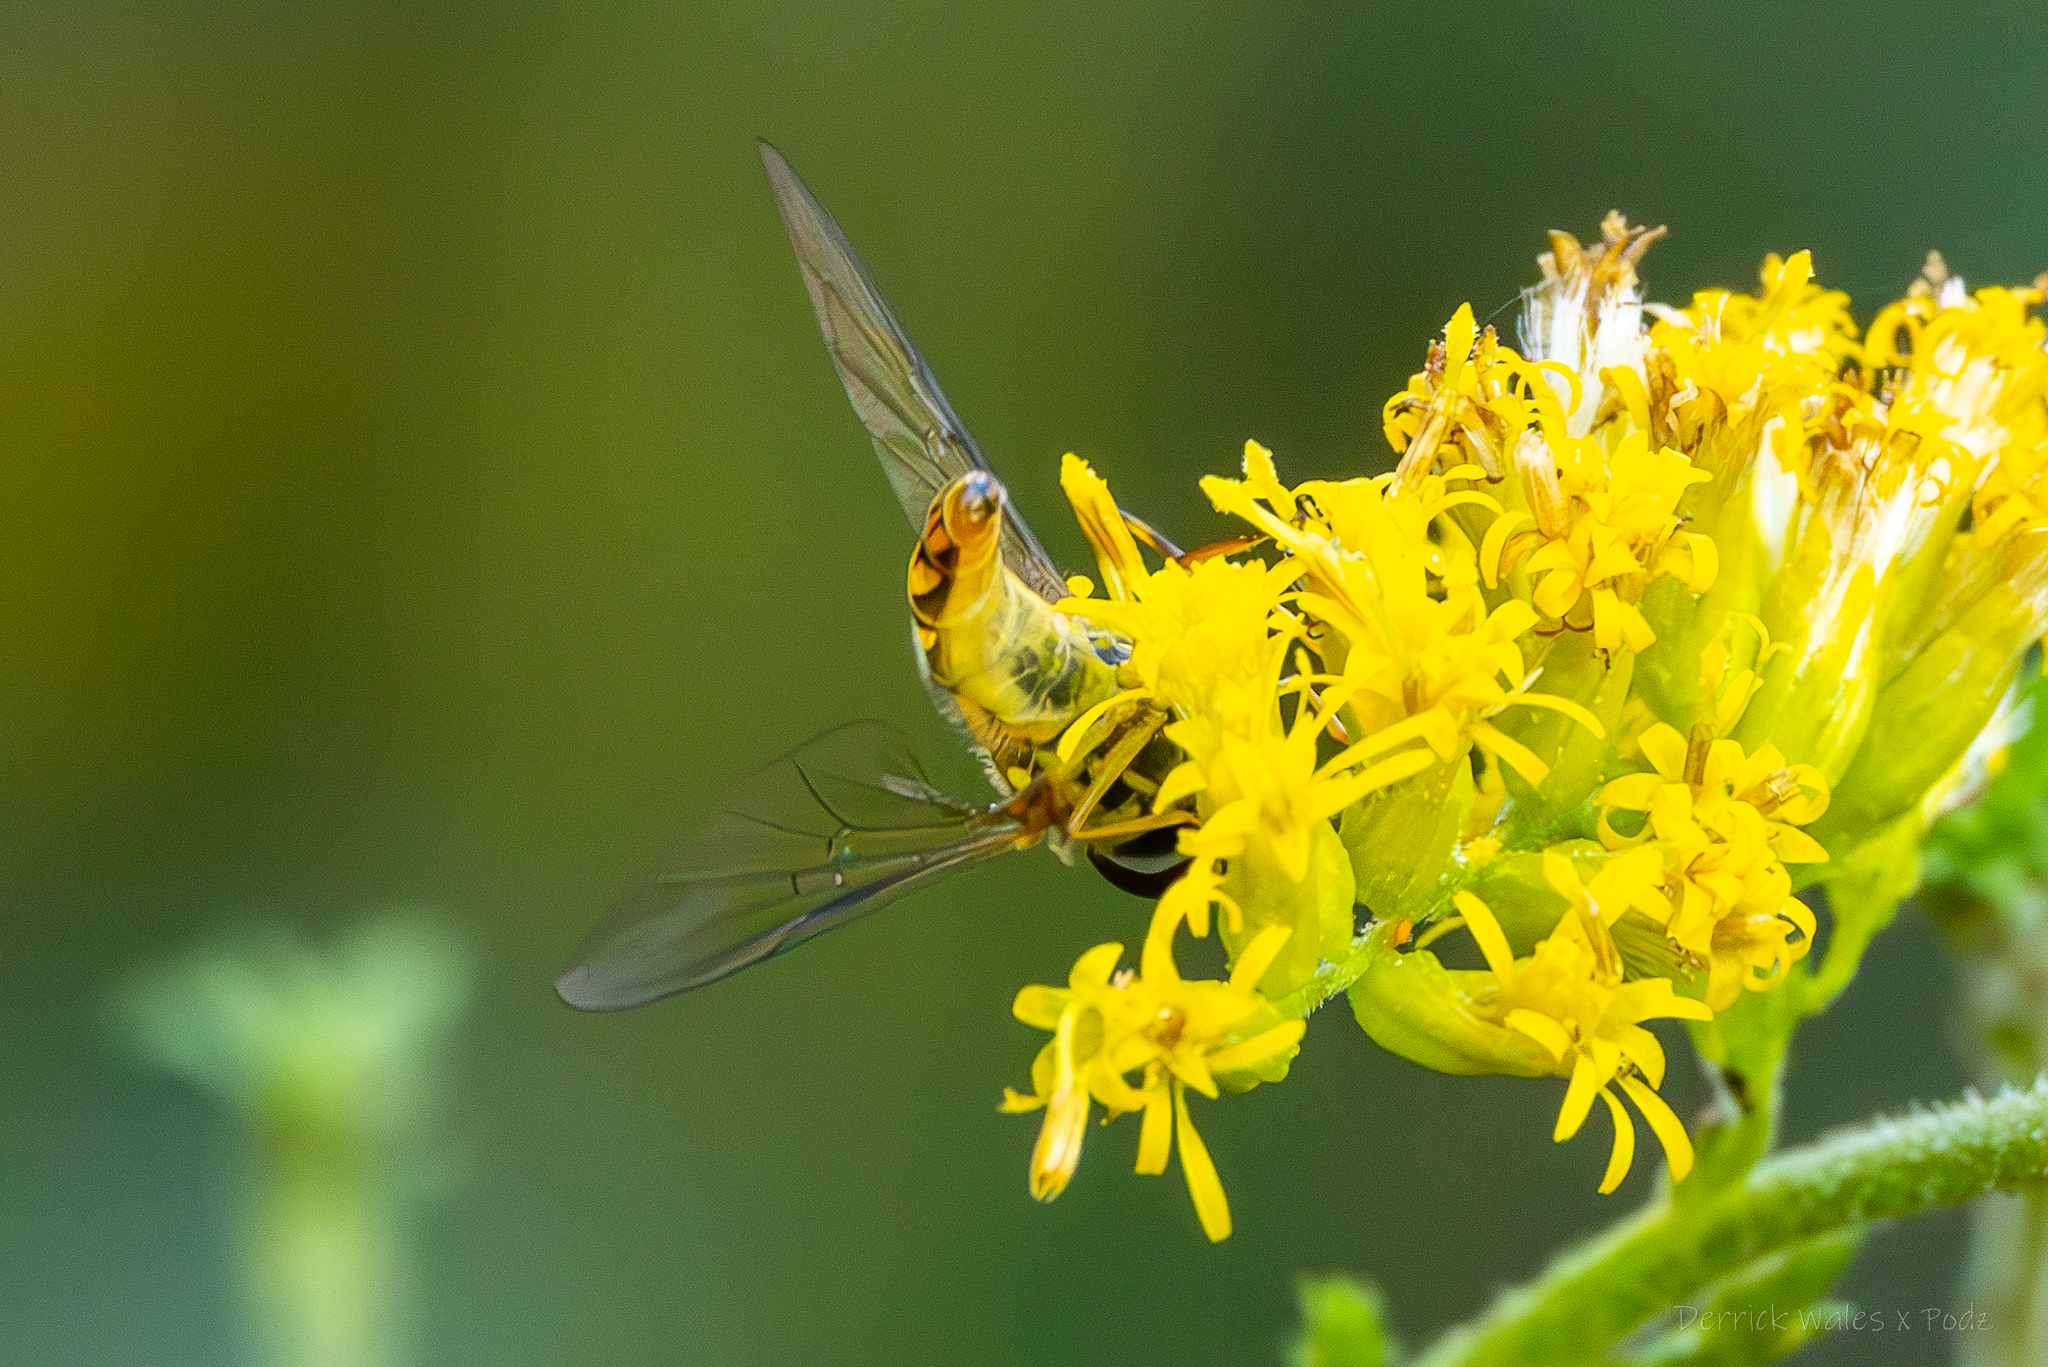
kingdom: Animalia
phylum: Arthropoda
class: Insecta
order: Diptera
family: Syrphidae
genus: Allograpta
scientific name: Allograpta obliqua
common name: Common oblique syrphid
